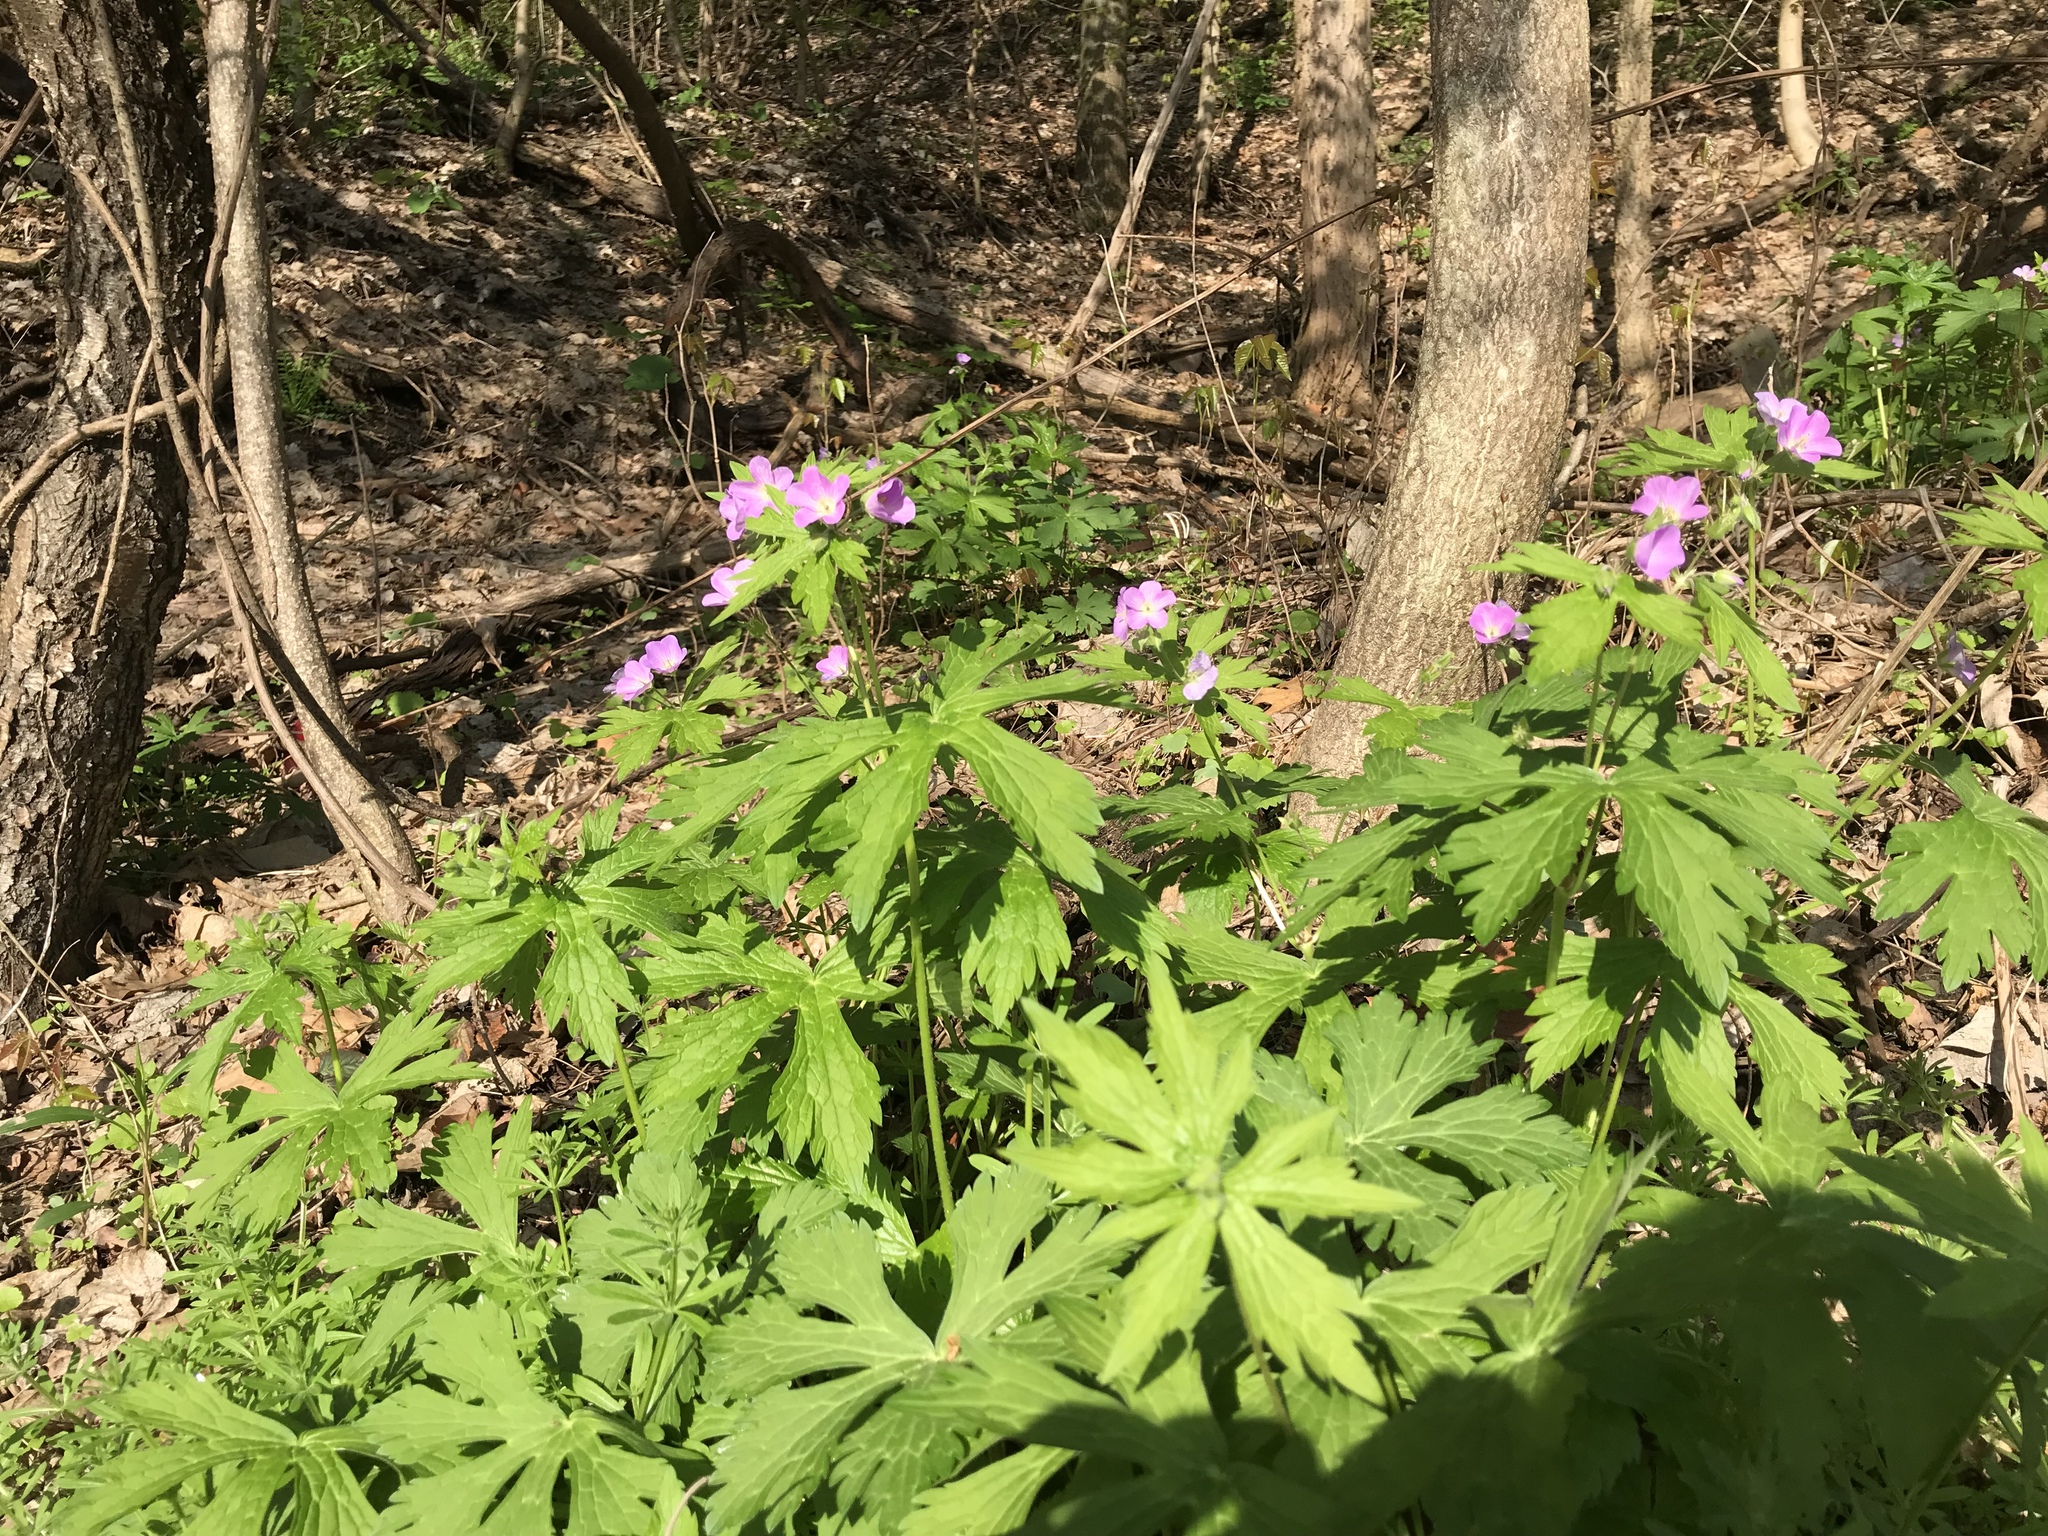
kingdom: Plantae
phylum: Tracheophyta
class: Magnoliopsida
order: Geraniales
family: Geraniaceae
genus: Geranium
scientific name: Geranium maculatum
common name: Spotted geranium
